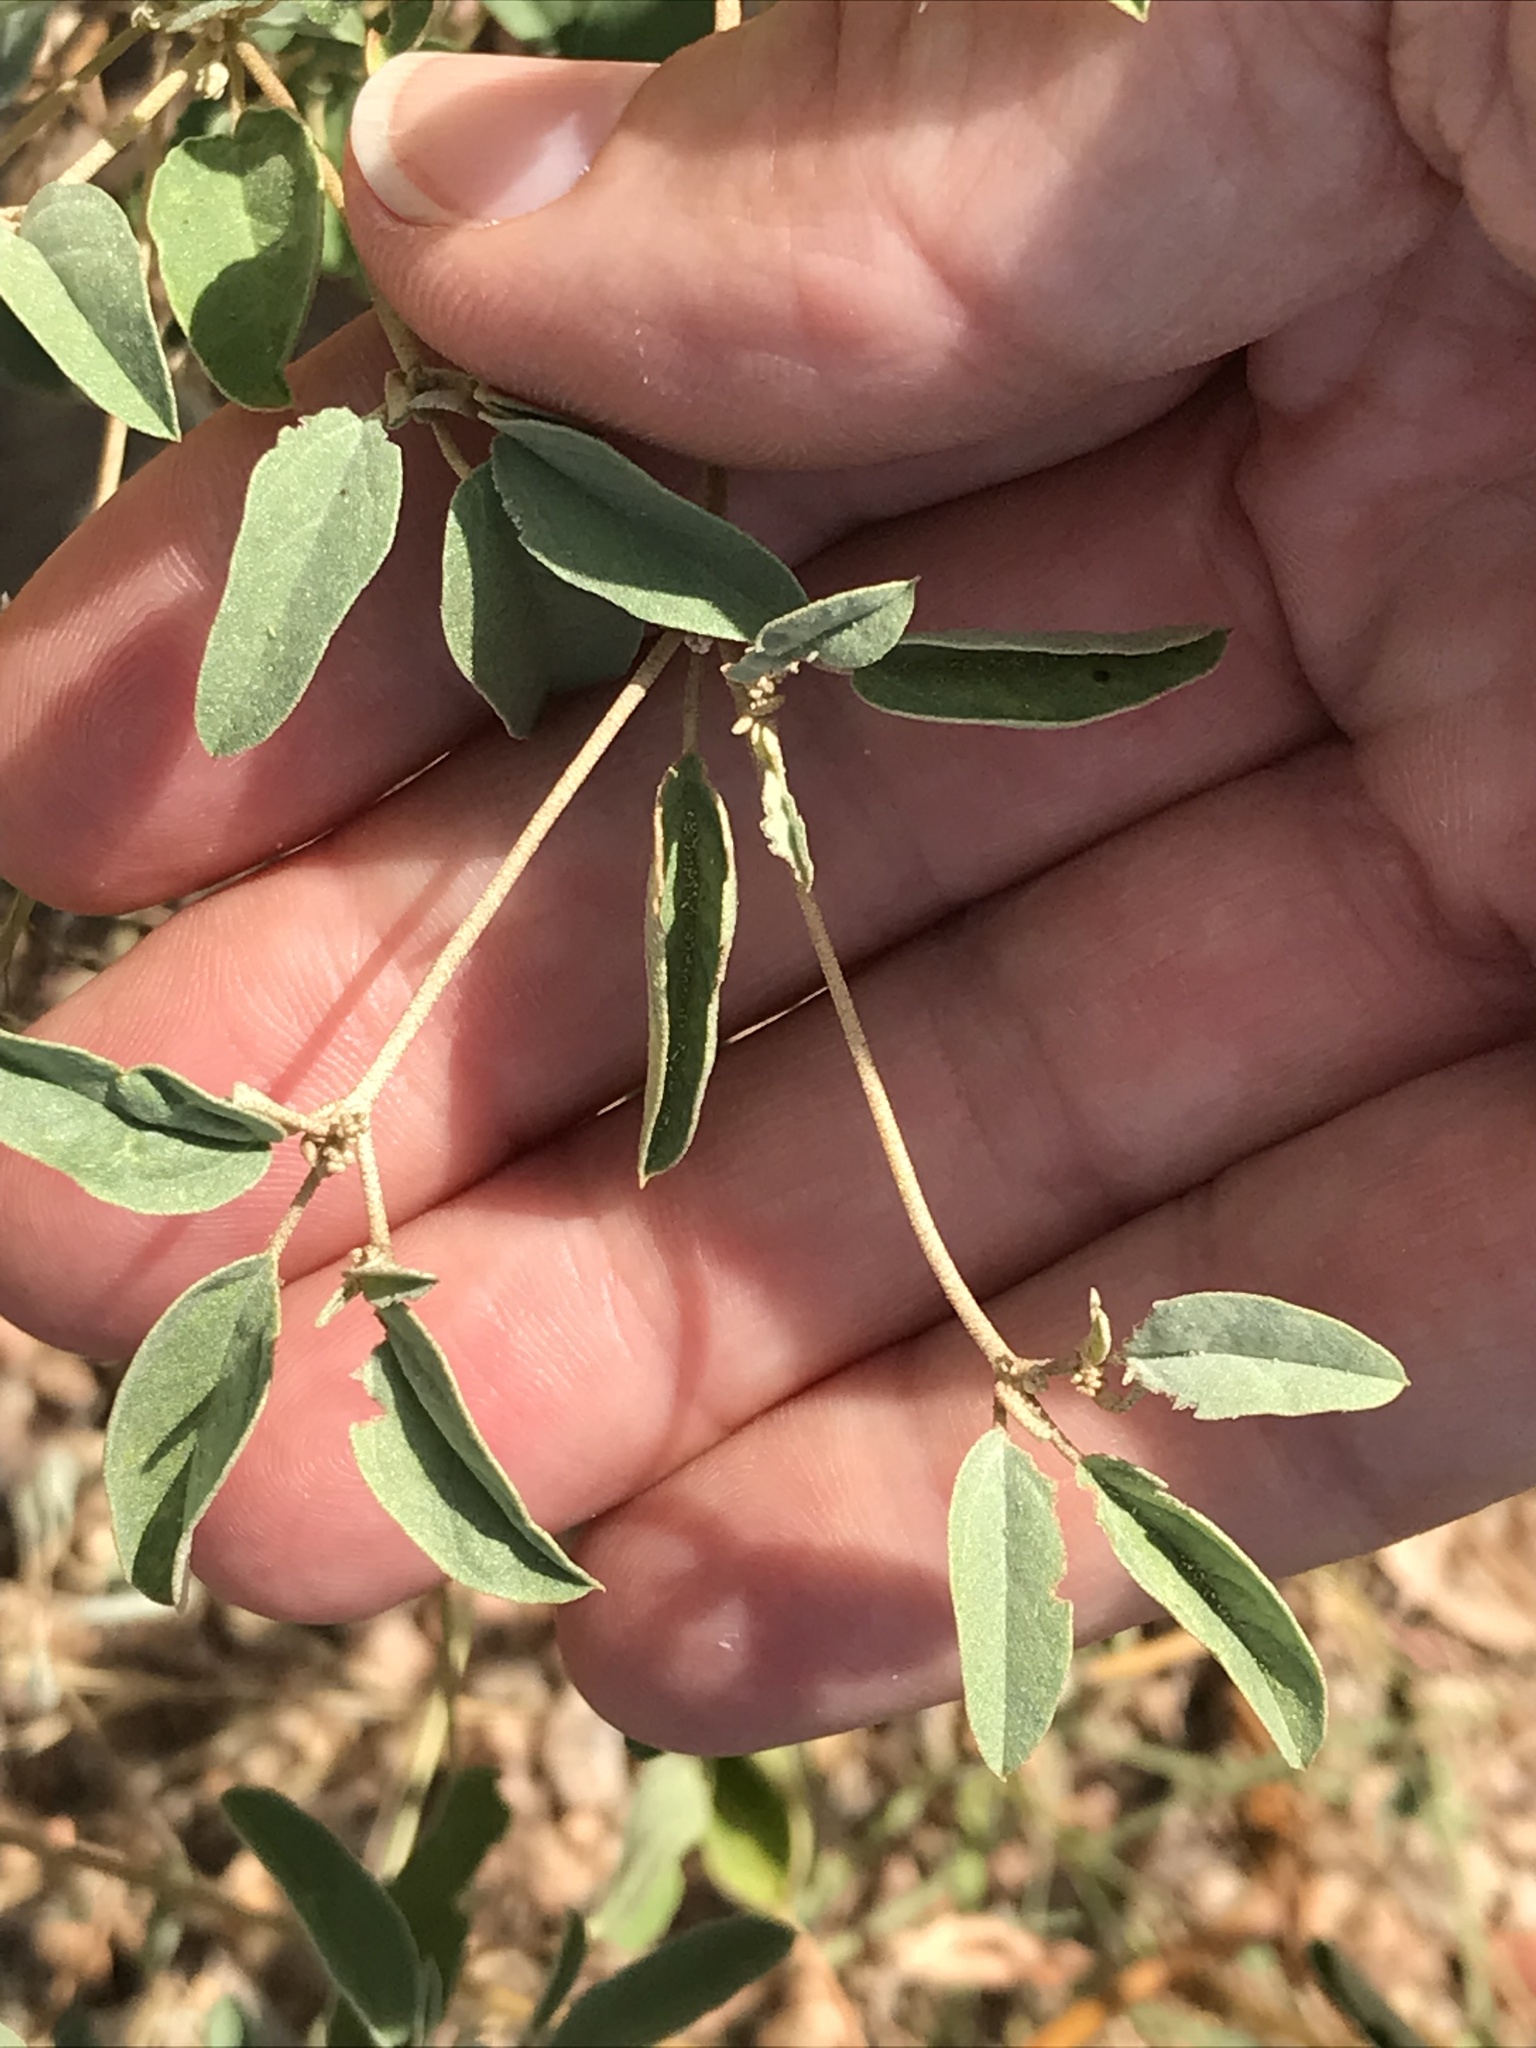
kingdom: Plantae
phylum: Tracheophyta
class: Magnoliopsida
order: Malpighiales
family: Euphorbiaceae
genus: Croton
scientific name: Croton monanthogynus
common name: One-seed croton
